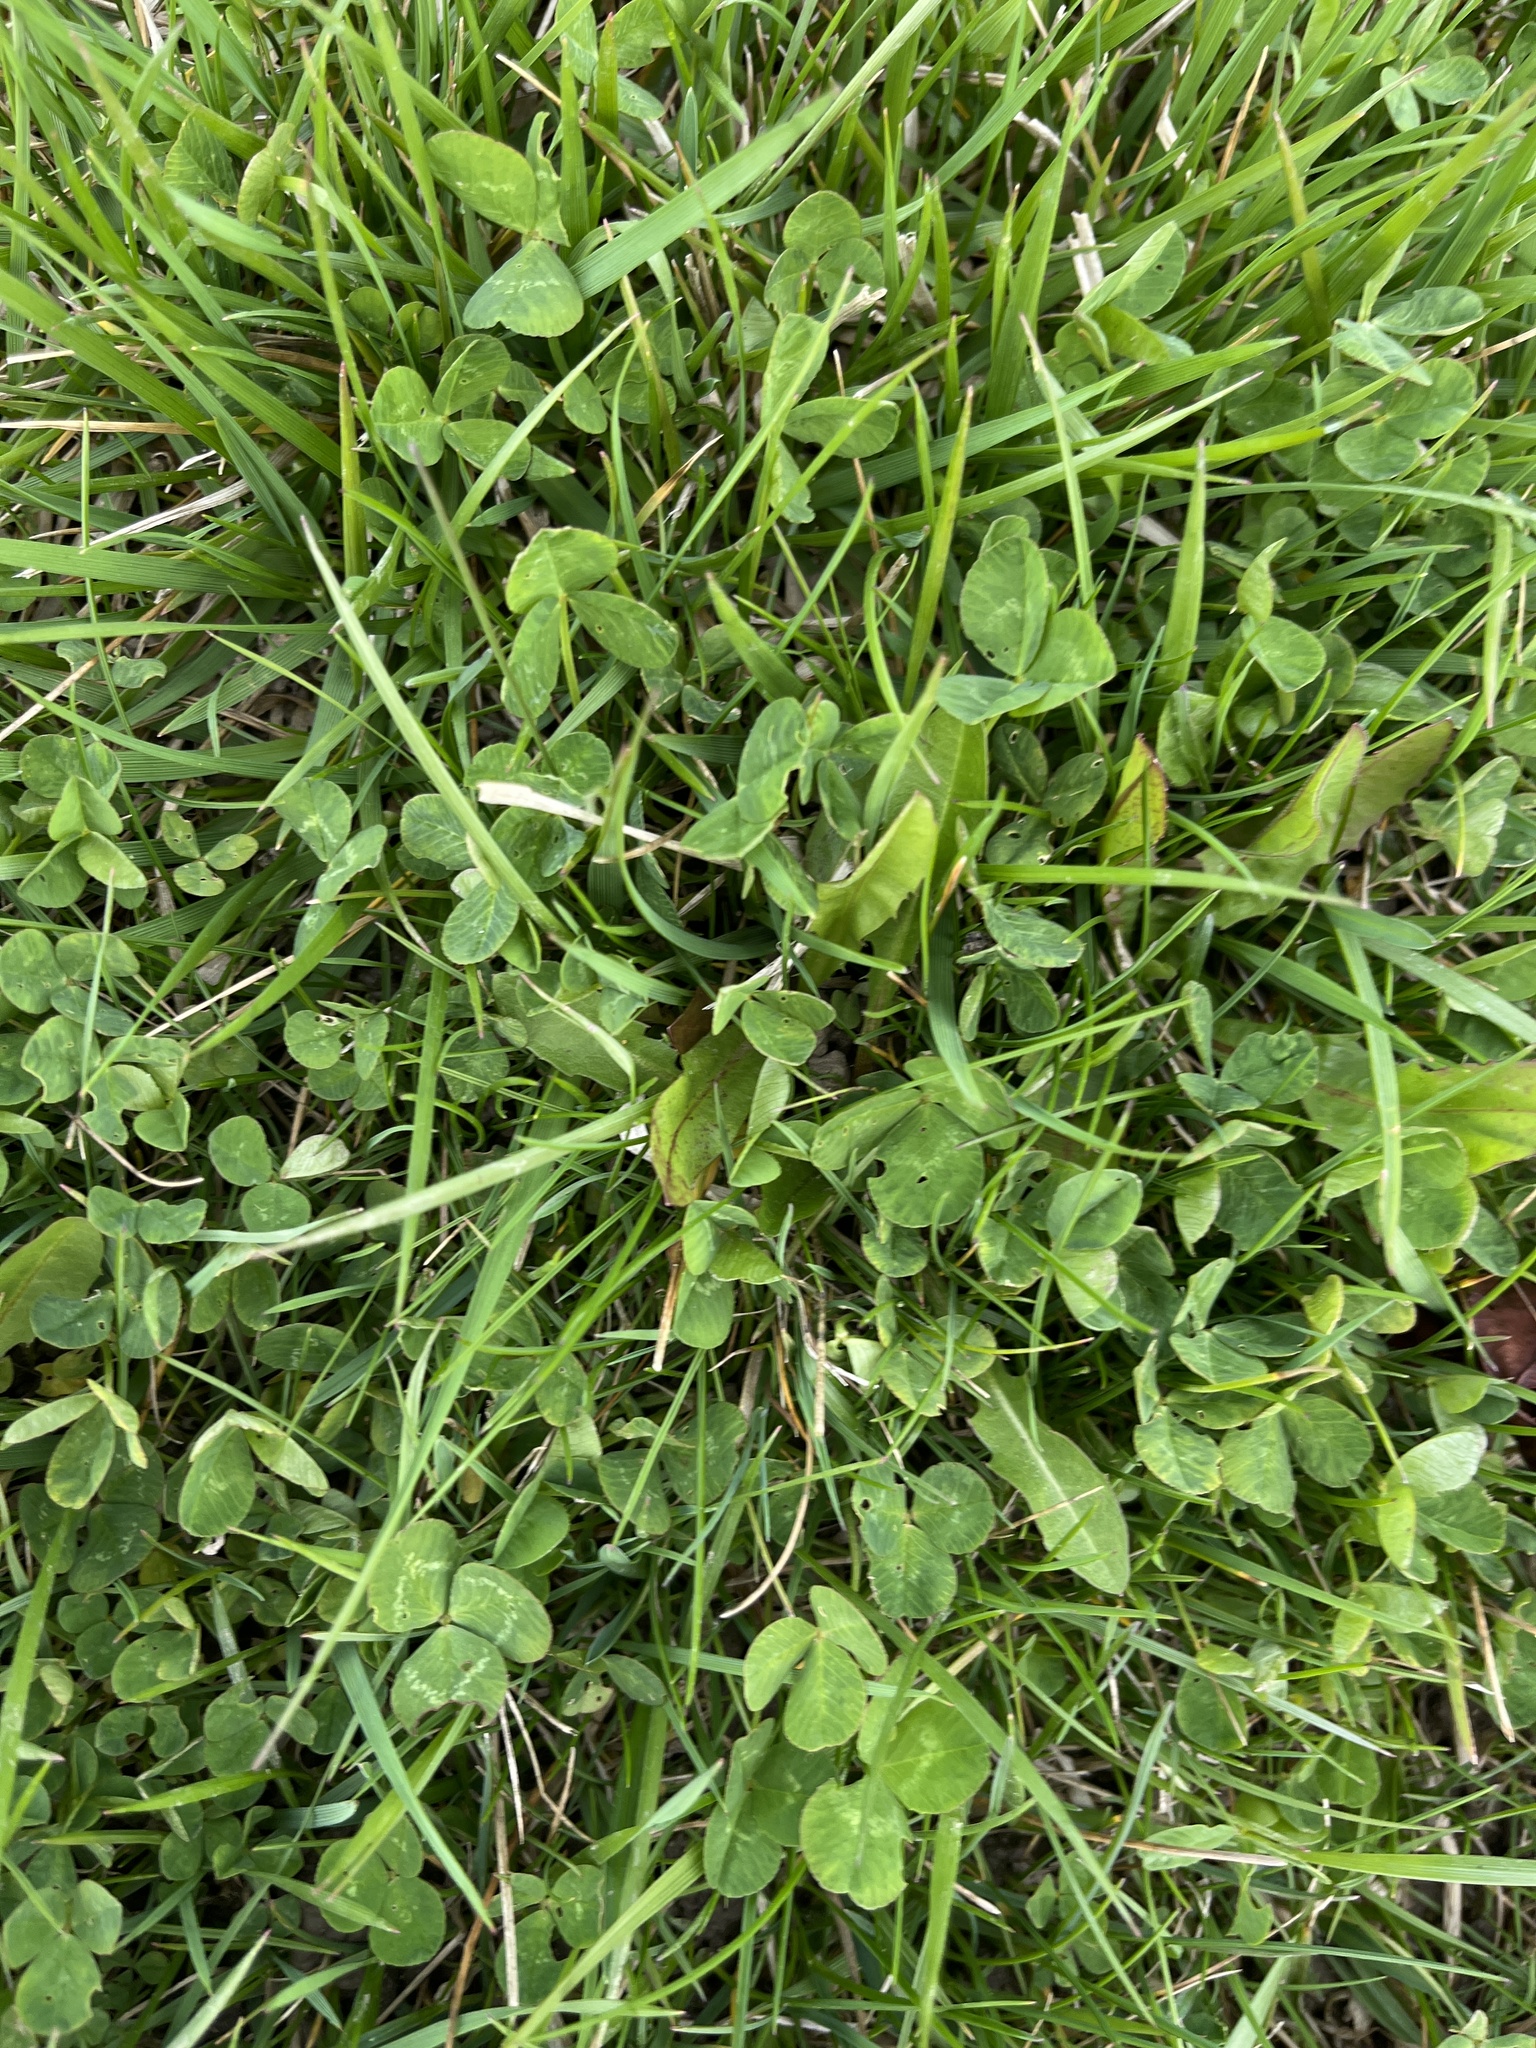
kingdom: Plantae
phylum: Tracheophyta
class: Magnoliopsida
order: Fabales
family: Fabaceae
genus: Trifolium
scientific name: Trifolium repens
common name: White clover
